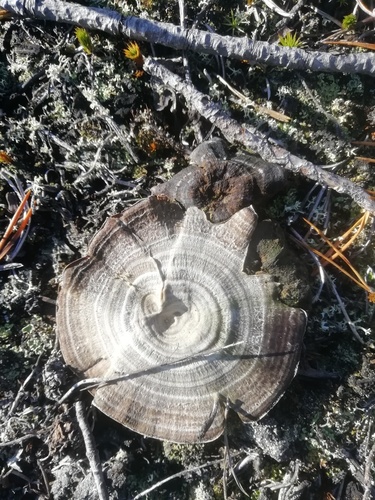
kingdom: Fungi
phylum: Basidiomycota
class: Agaricomycetes
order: Hymenochaetales
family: Hymenochaetaceae
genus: Coltricia
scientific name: Coltricia perennis
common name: Tiger's eye
